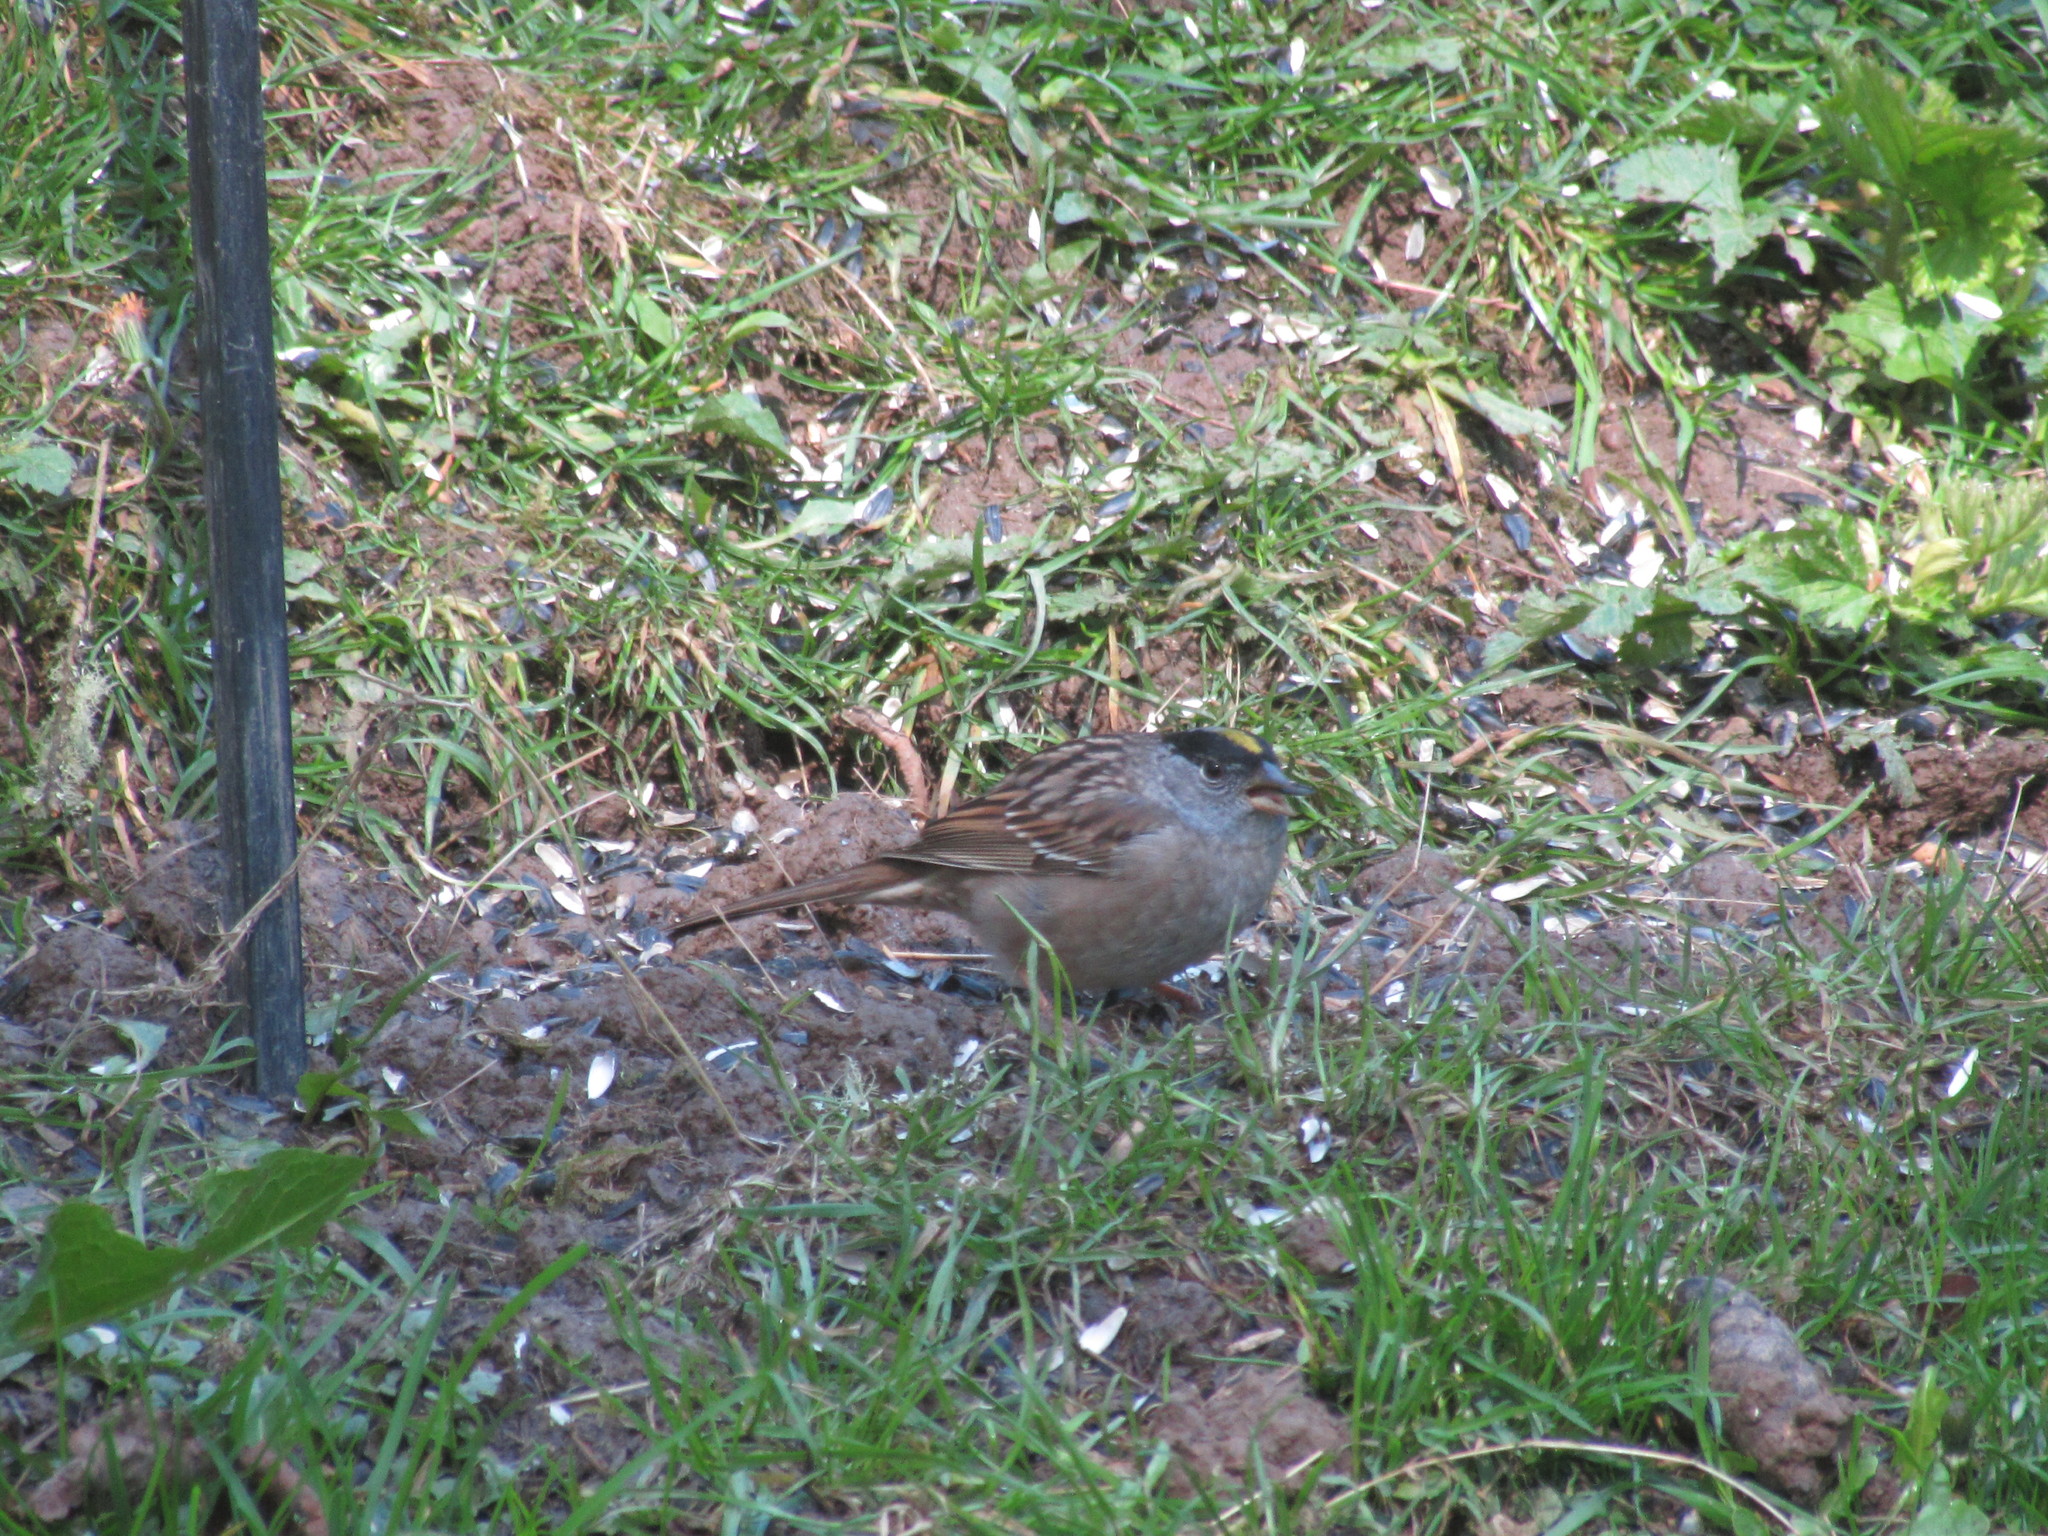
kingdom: Animalia
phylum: Chordata
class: Aves
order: Passeriformes
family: Passerellidae
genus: Zonotrichia
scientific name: Zonotrichia atricapilla
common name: Golden-crowned sparrow
